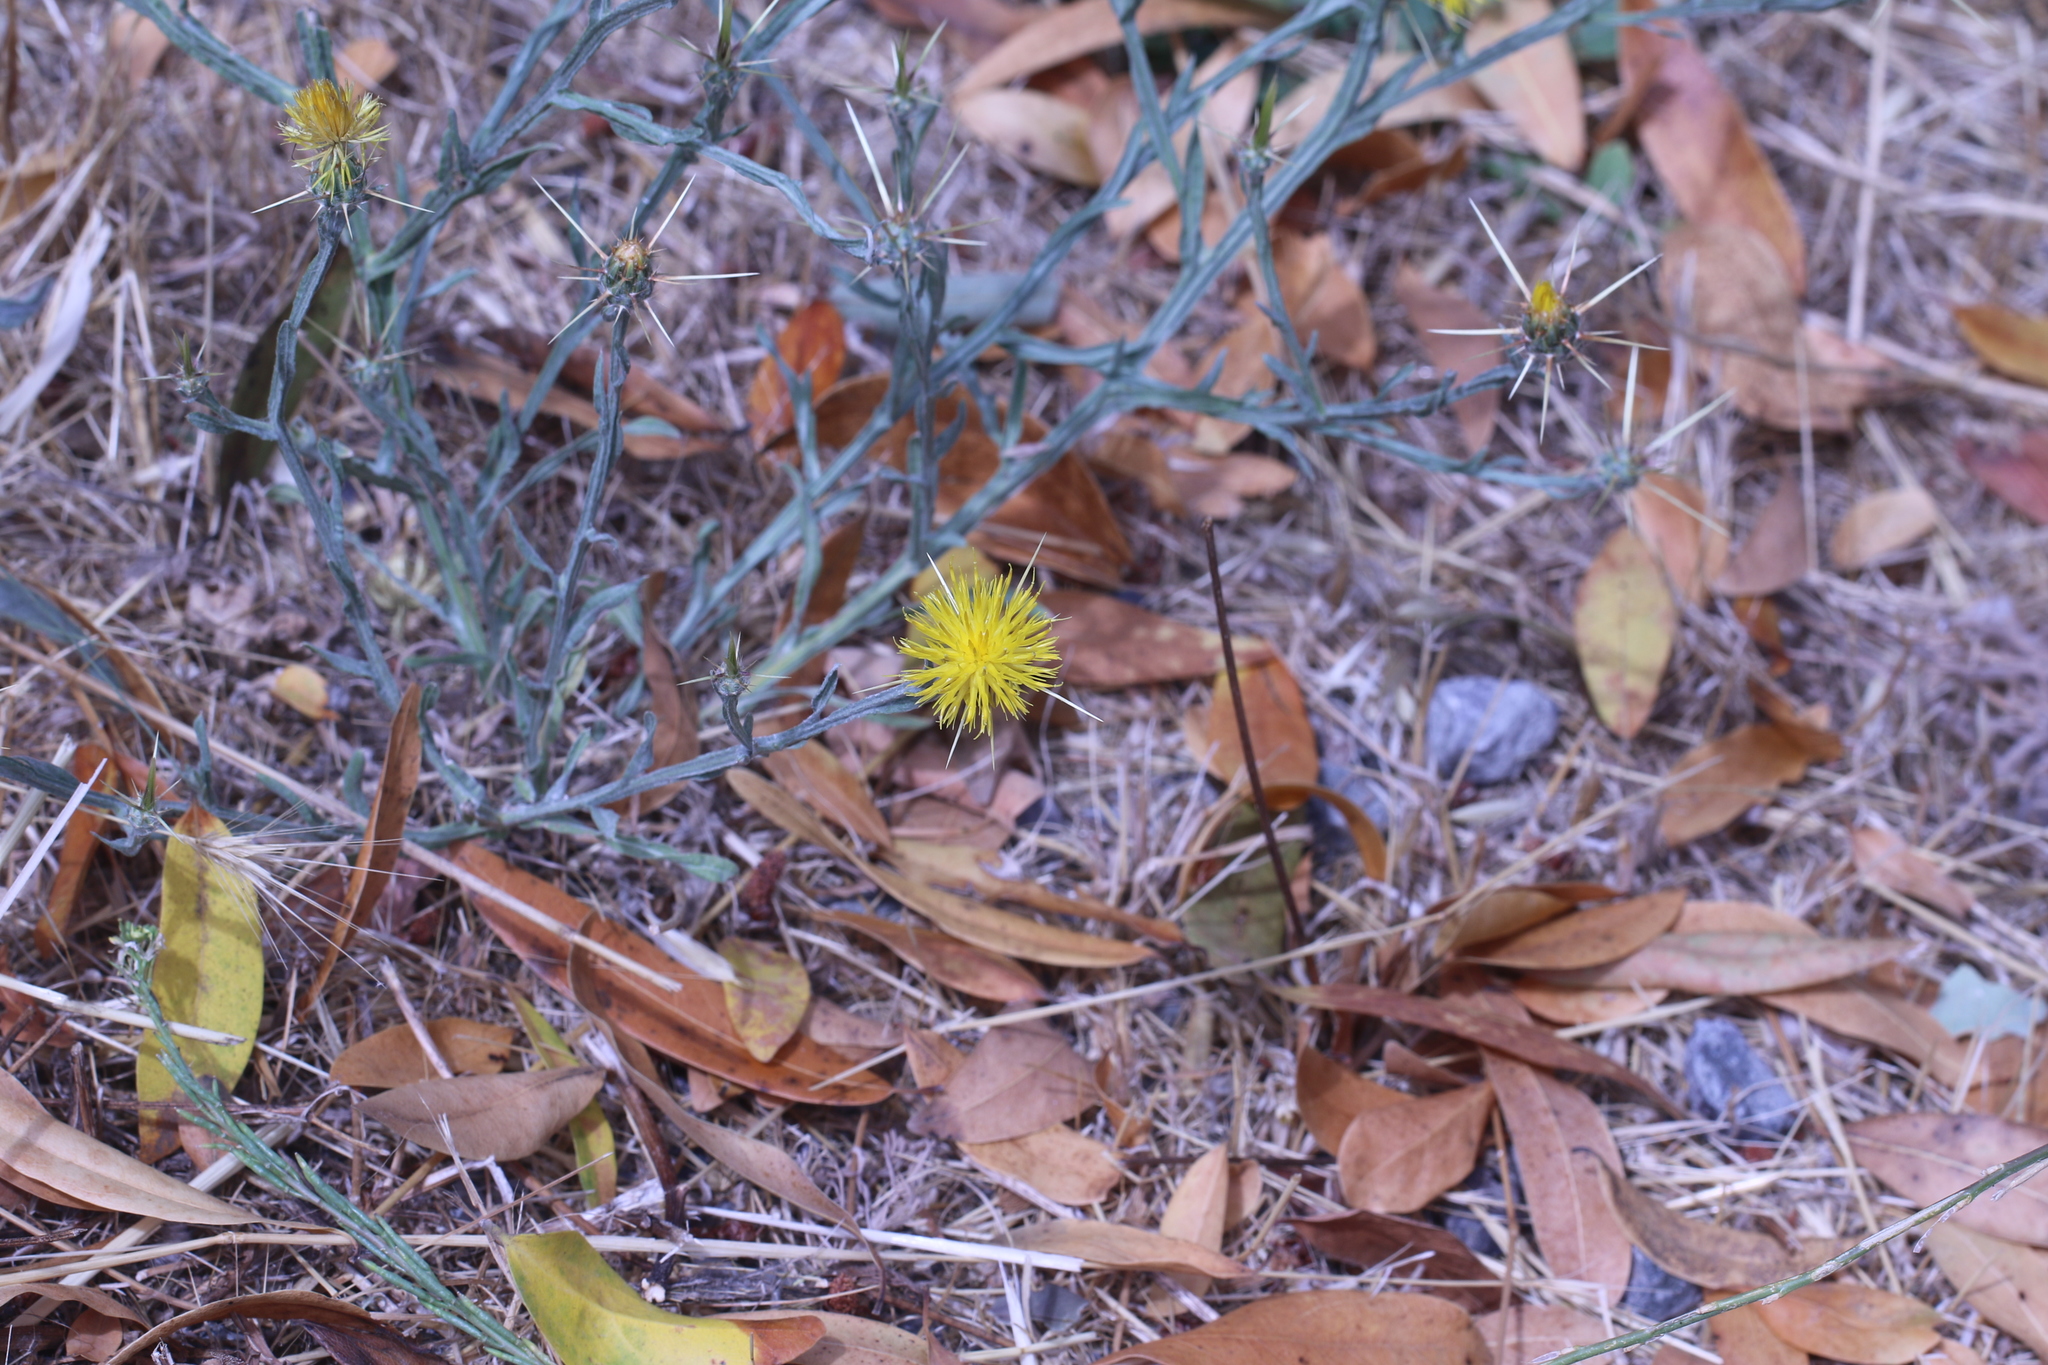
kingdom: Plantae
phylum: Tracheophyta
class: Magnoliopsida
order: Asterales
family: Asteraceae
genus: Centaurea
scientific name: Centaurea solstitialis
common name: Yellow star-thistle
